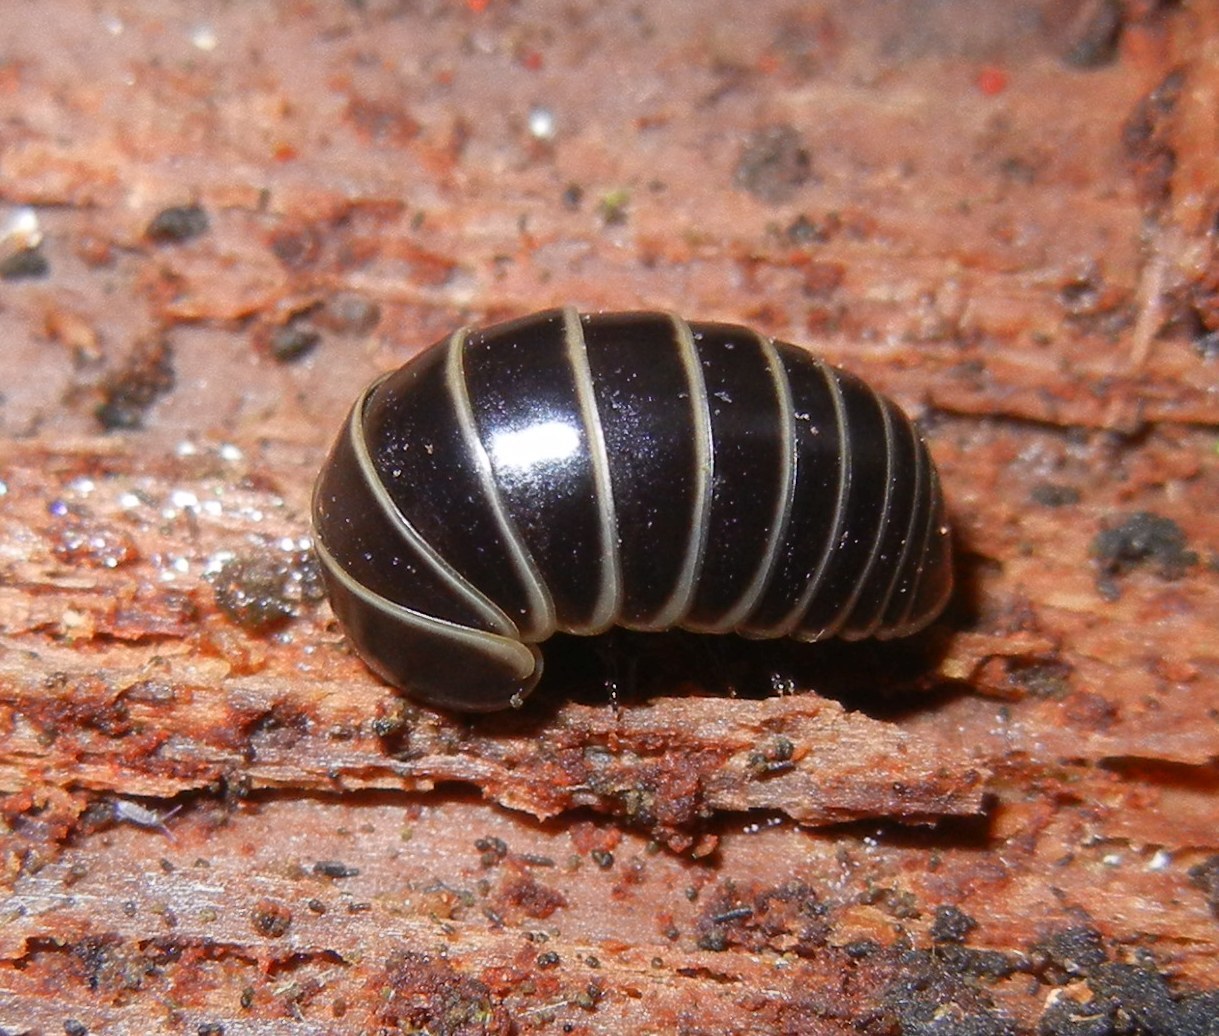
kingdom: Animalia
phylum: Arthropoda
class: Diplopoda
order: Glomerida
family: Glomeridae
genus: Glomeris
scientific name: Glomeris marginata
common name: Bordered pill millipede
